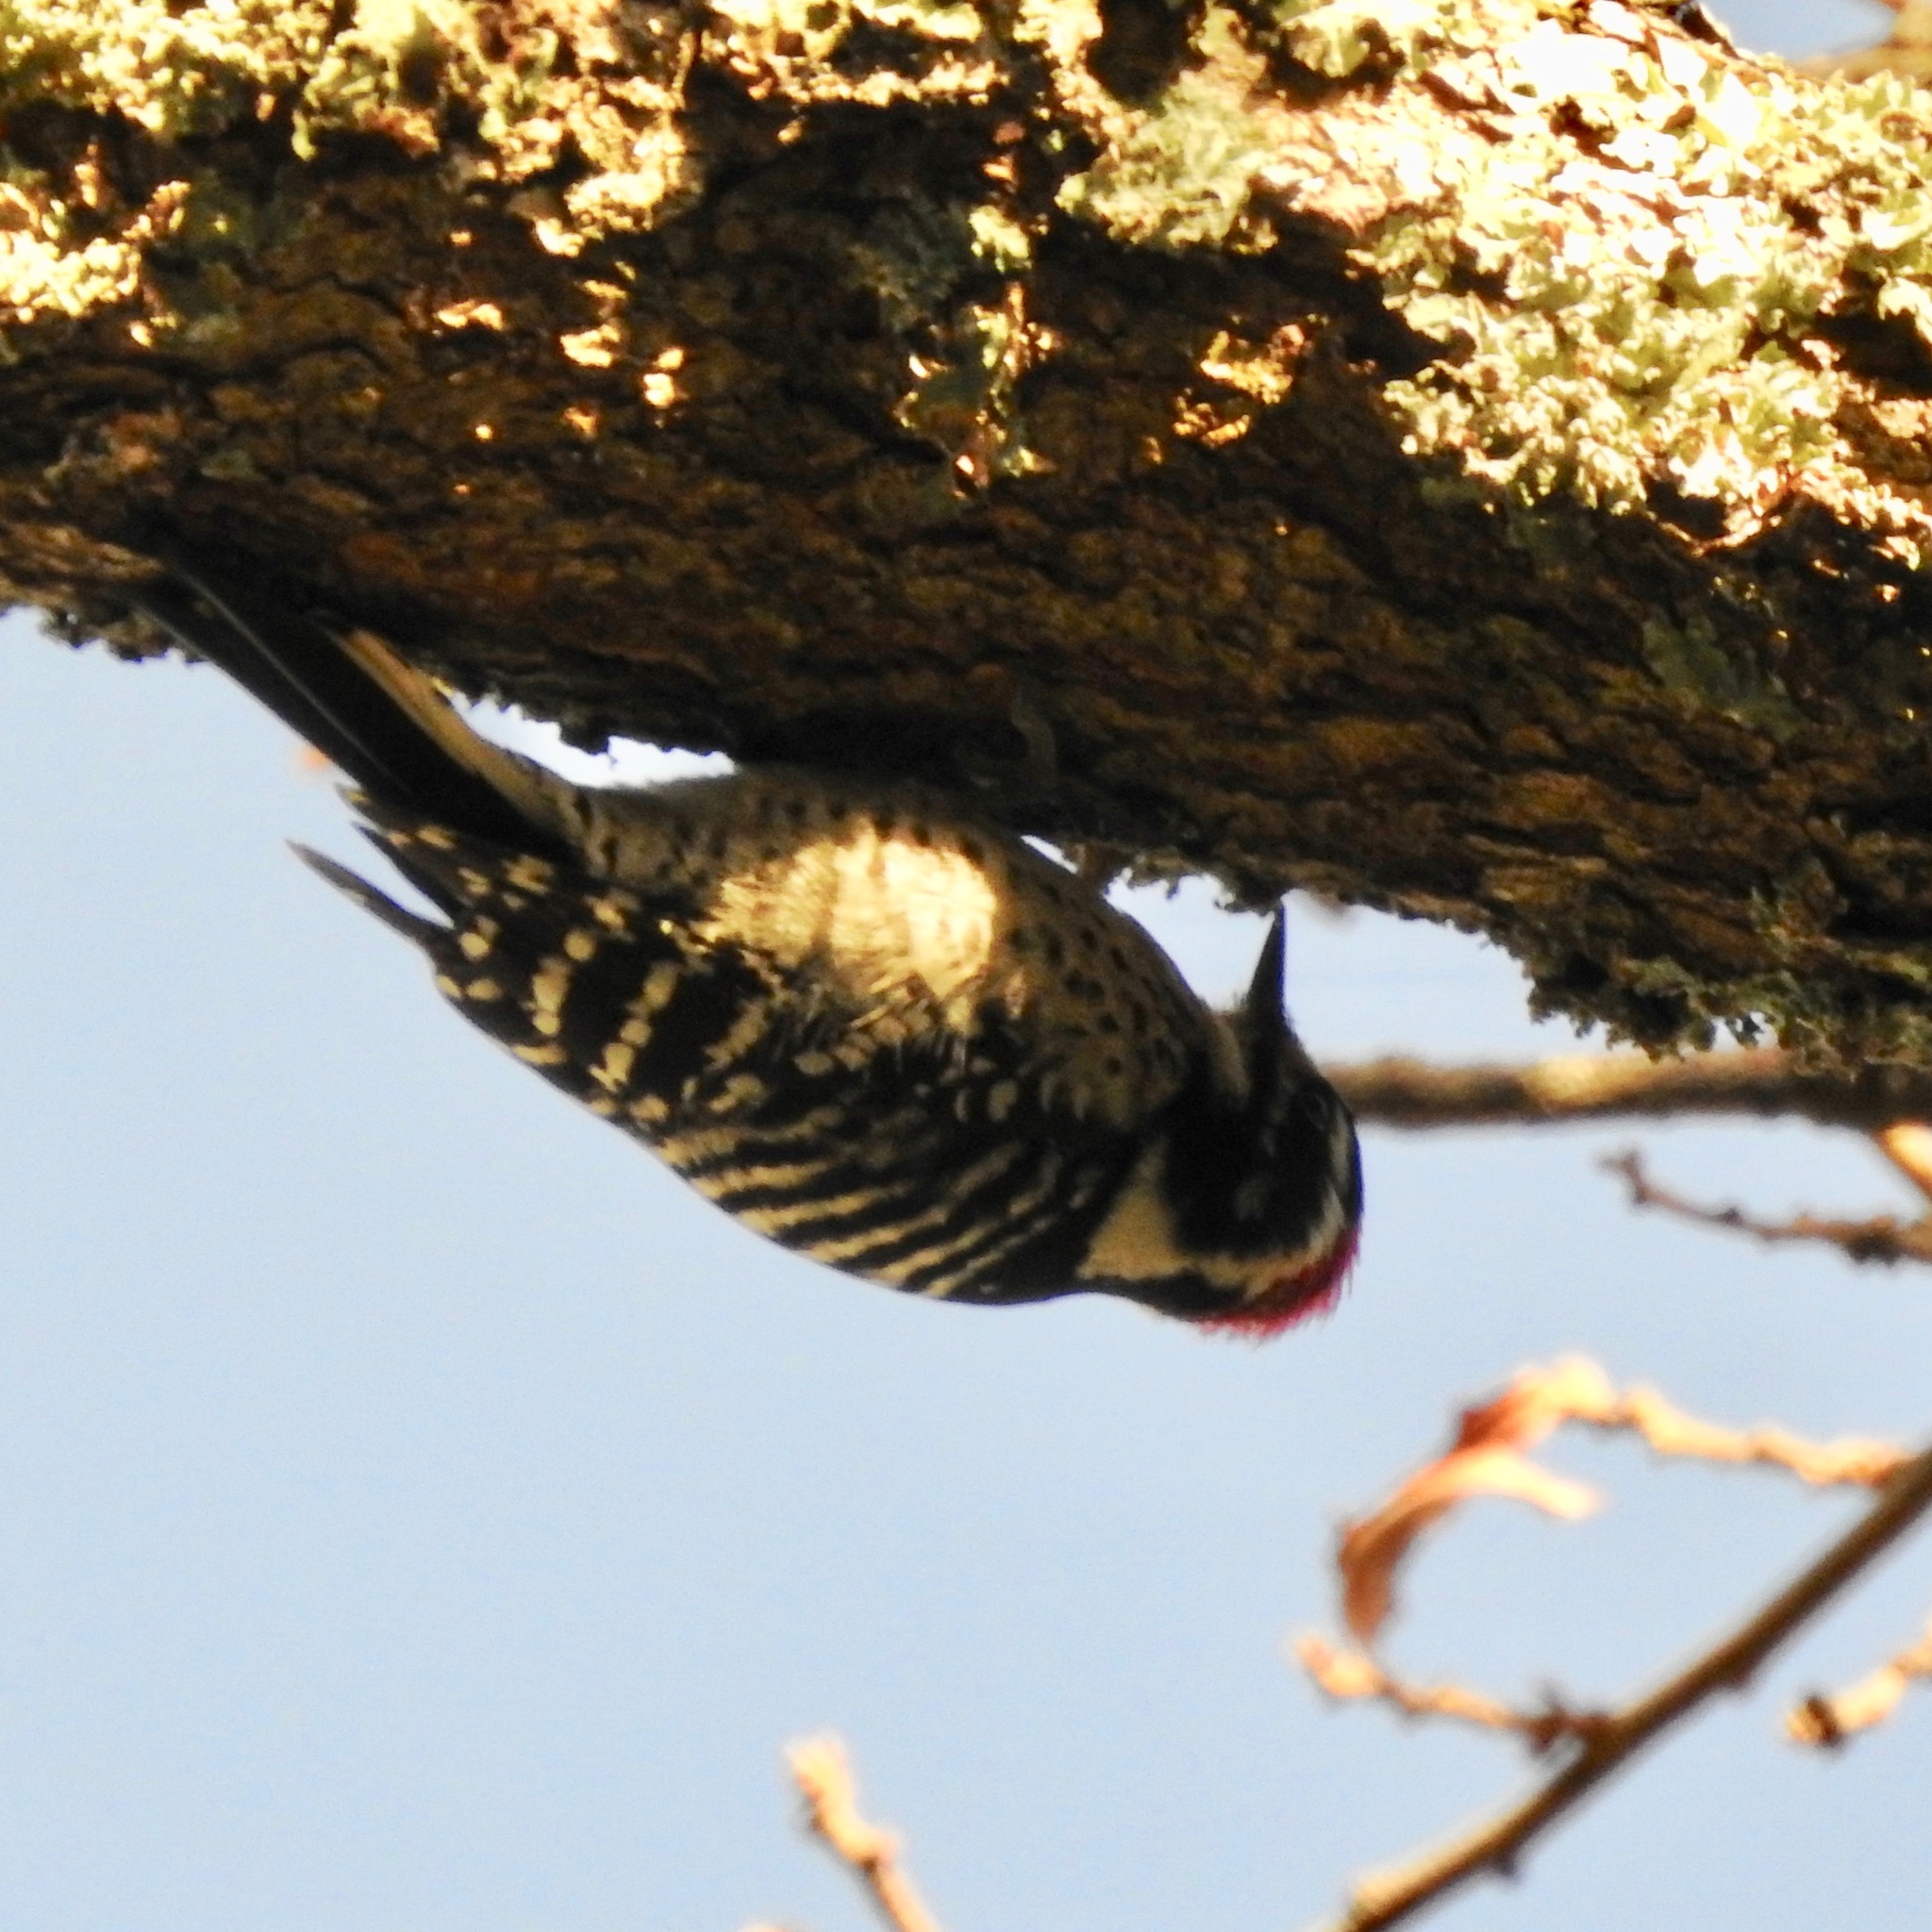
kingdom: Animalia
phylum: Chordata
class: Aves
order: Piciformes
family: Picidae
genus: Dryobates
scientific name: Dryobates nuttallii
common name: Nuttall's woodpecker
